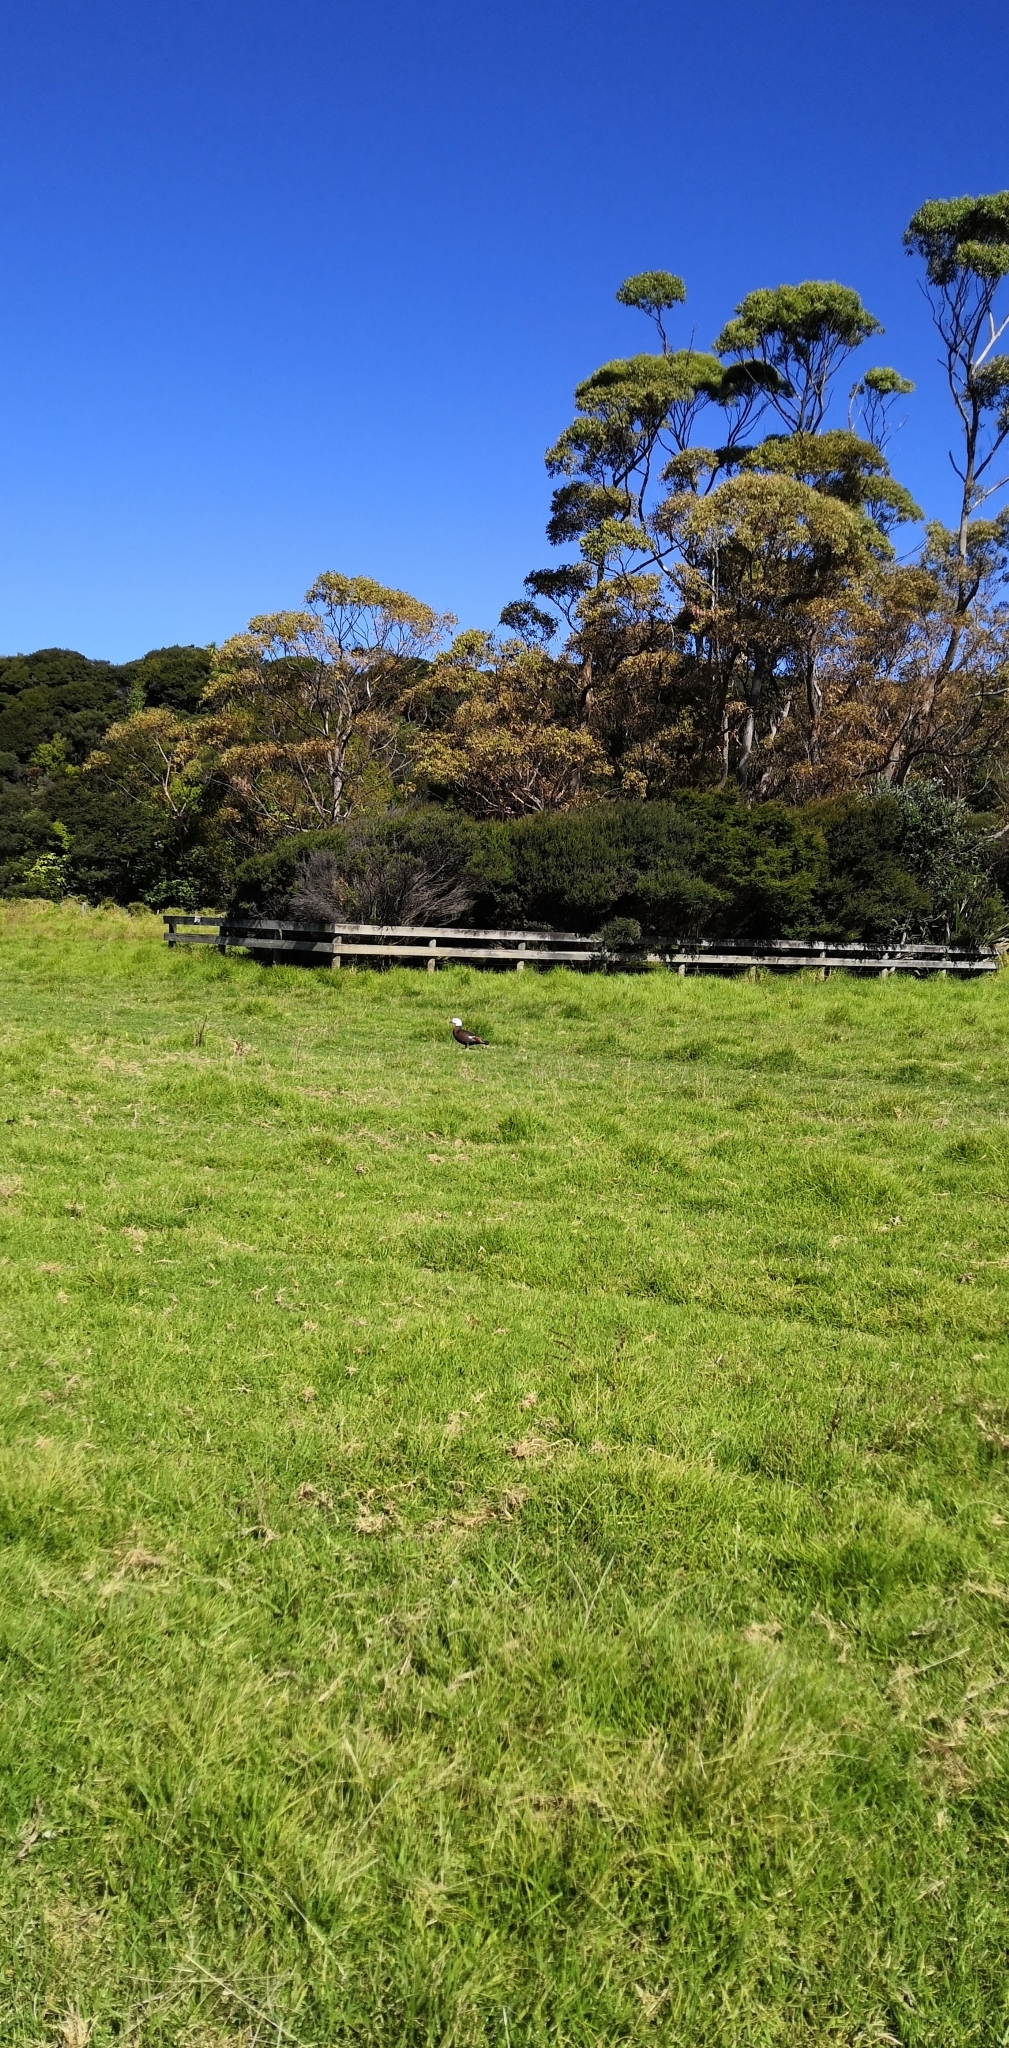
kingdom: Animalia
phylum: Chordata
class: Aves
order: Anseriformes
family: Anatidae
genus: Tadorna
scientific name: Tadorna variegata
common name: Paradise shelduck
